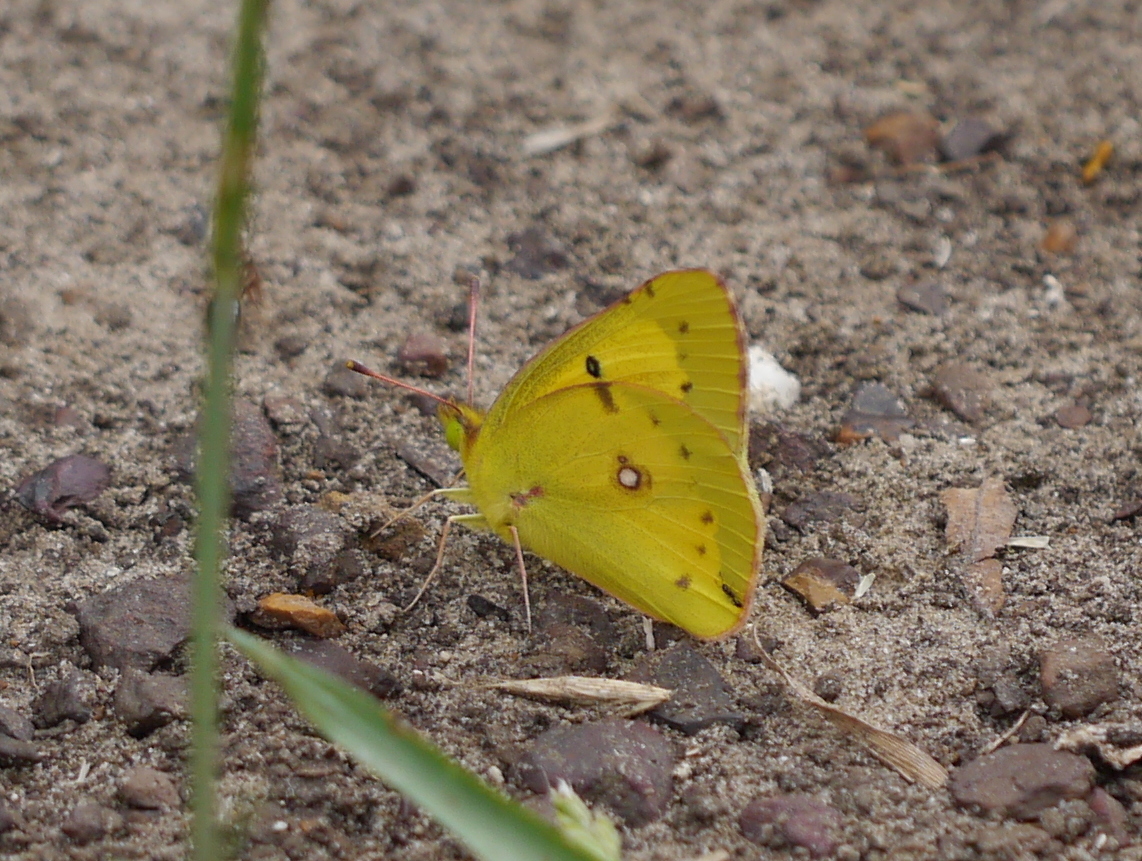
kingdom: Animalia
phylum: Arthropoda
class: Insecta
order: Lepidoptera
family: Pieridae
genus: Colias
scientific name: Colias eurytheme
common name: Alfalfa butterfly
